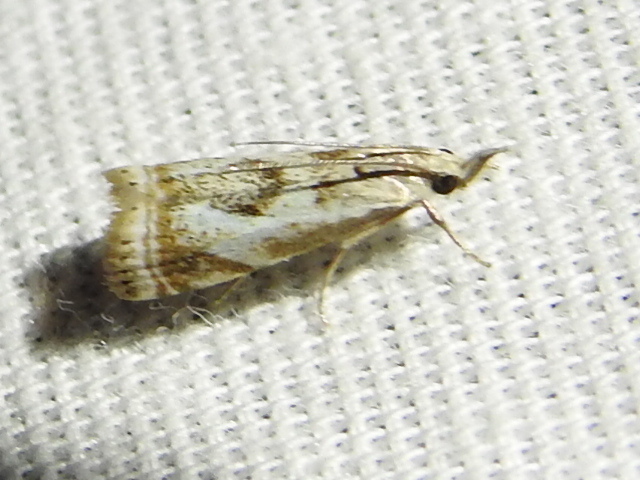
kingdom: Animalia
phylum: Arthropoda
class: Insecta
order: Lepidoptera
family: Crambidae
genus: Microcrambus
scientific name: Microcrambus elegans
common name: Elegant grass-veneer
